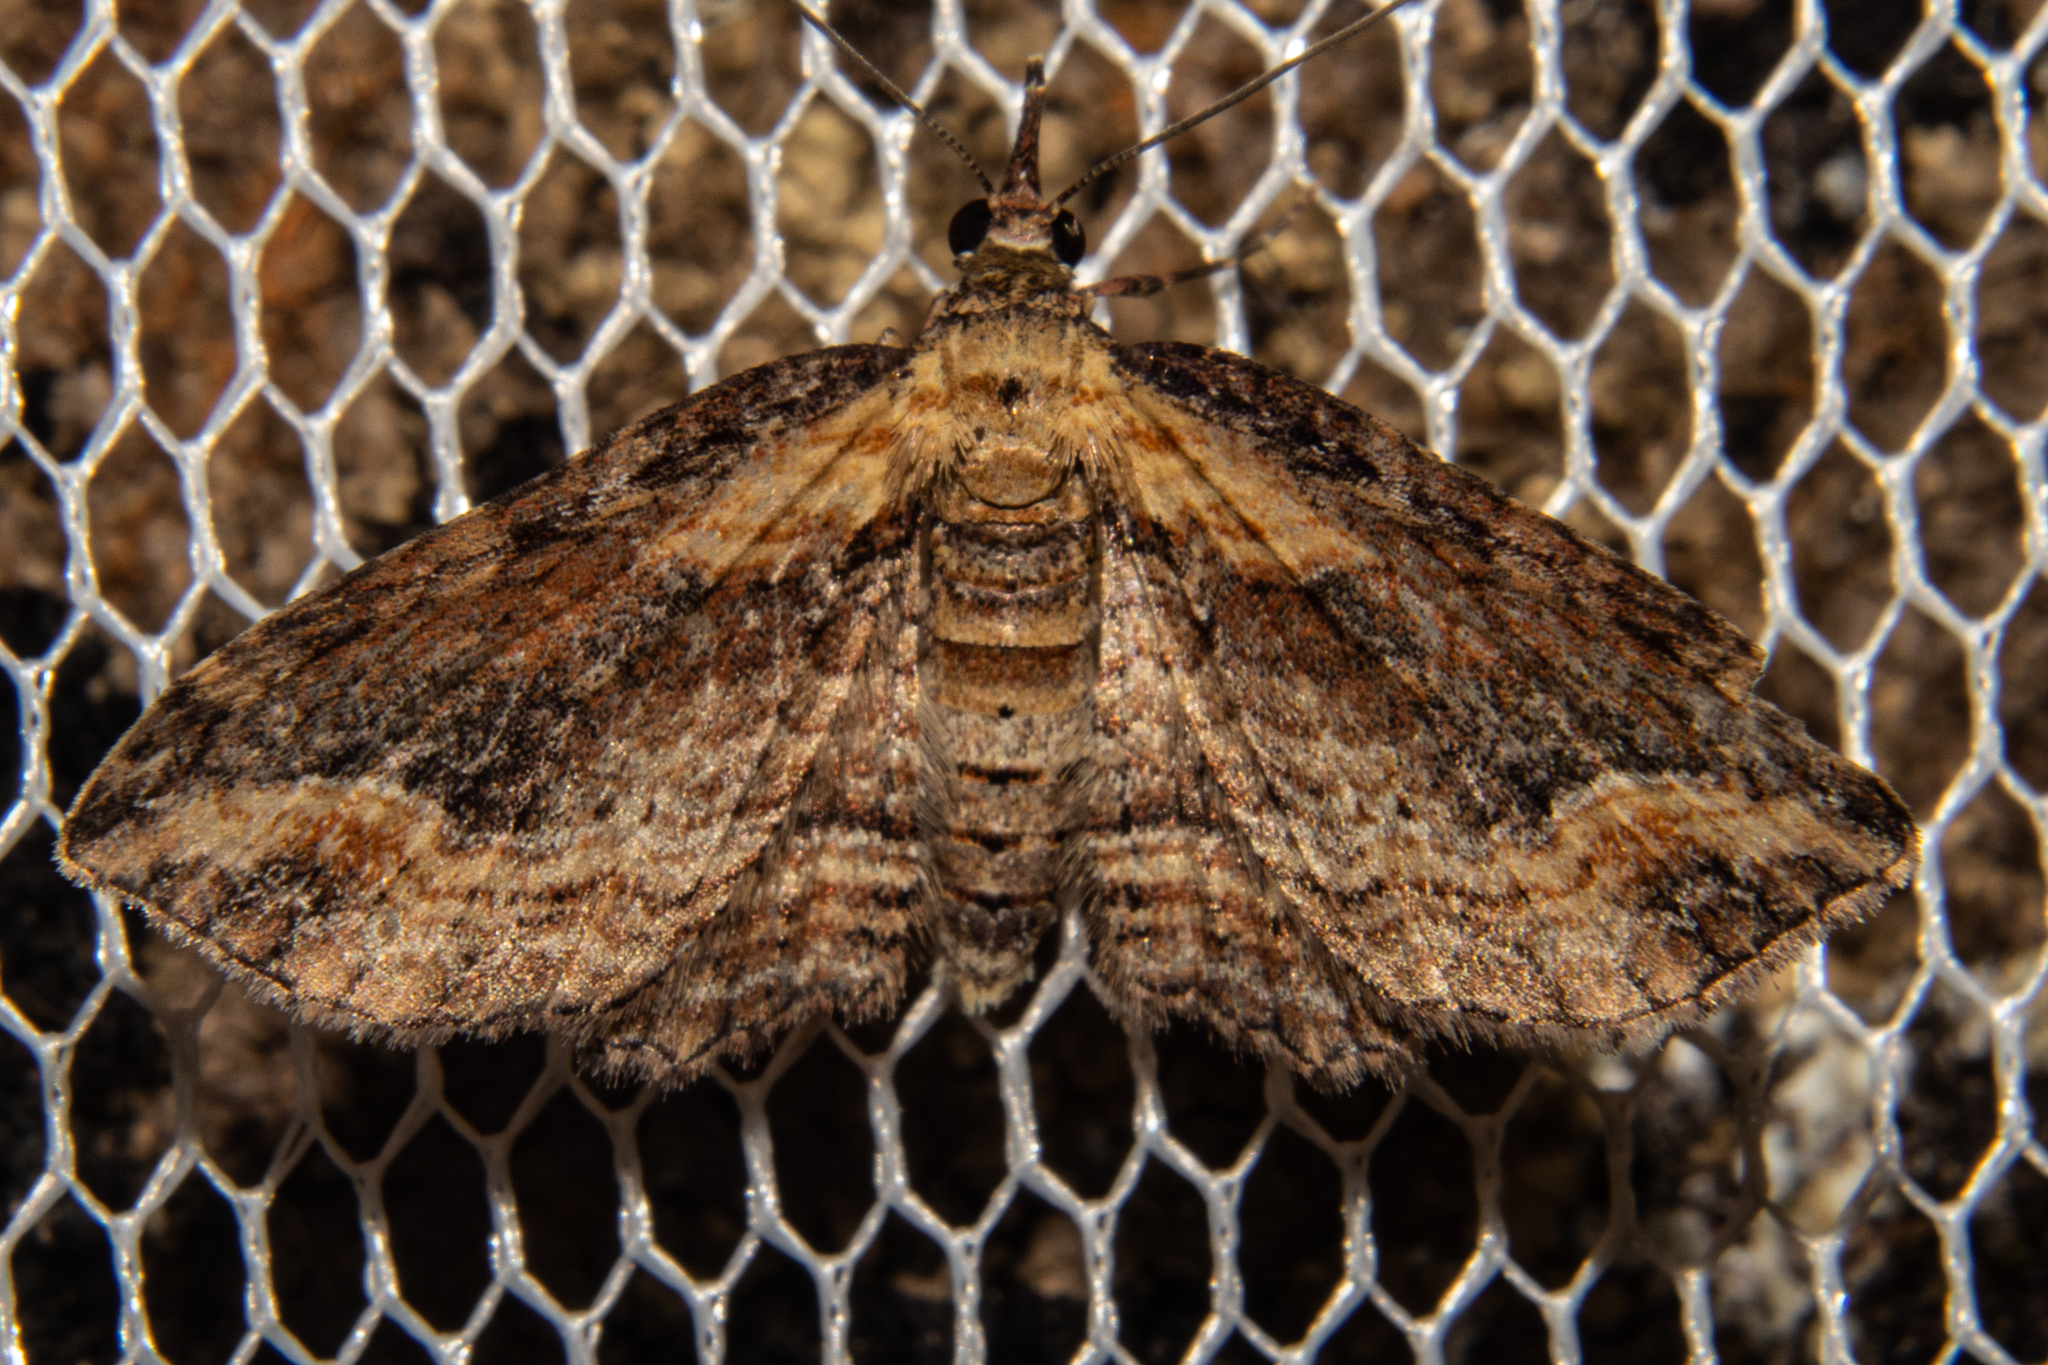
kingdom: Animalia
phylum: Arthropoda
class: Insecta
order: Lepidoptera
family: Geometridae
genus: Chloroclystis
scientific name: Chloroclystis filata
